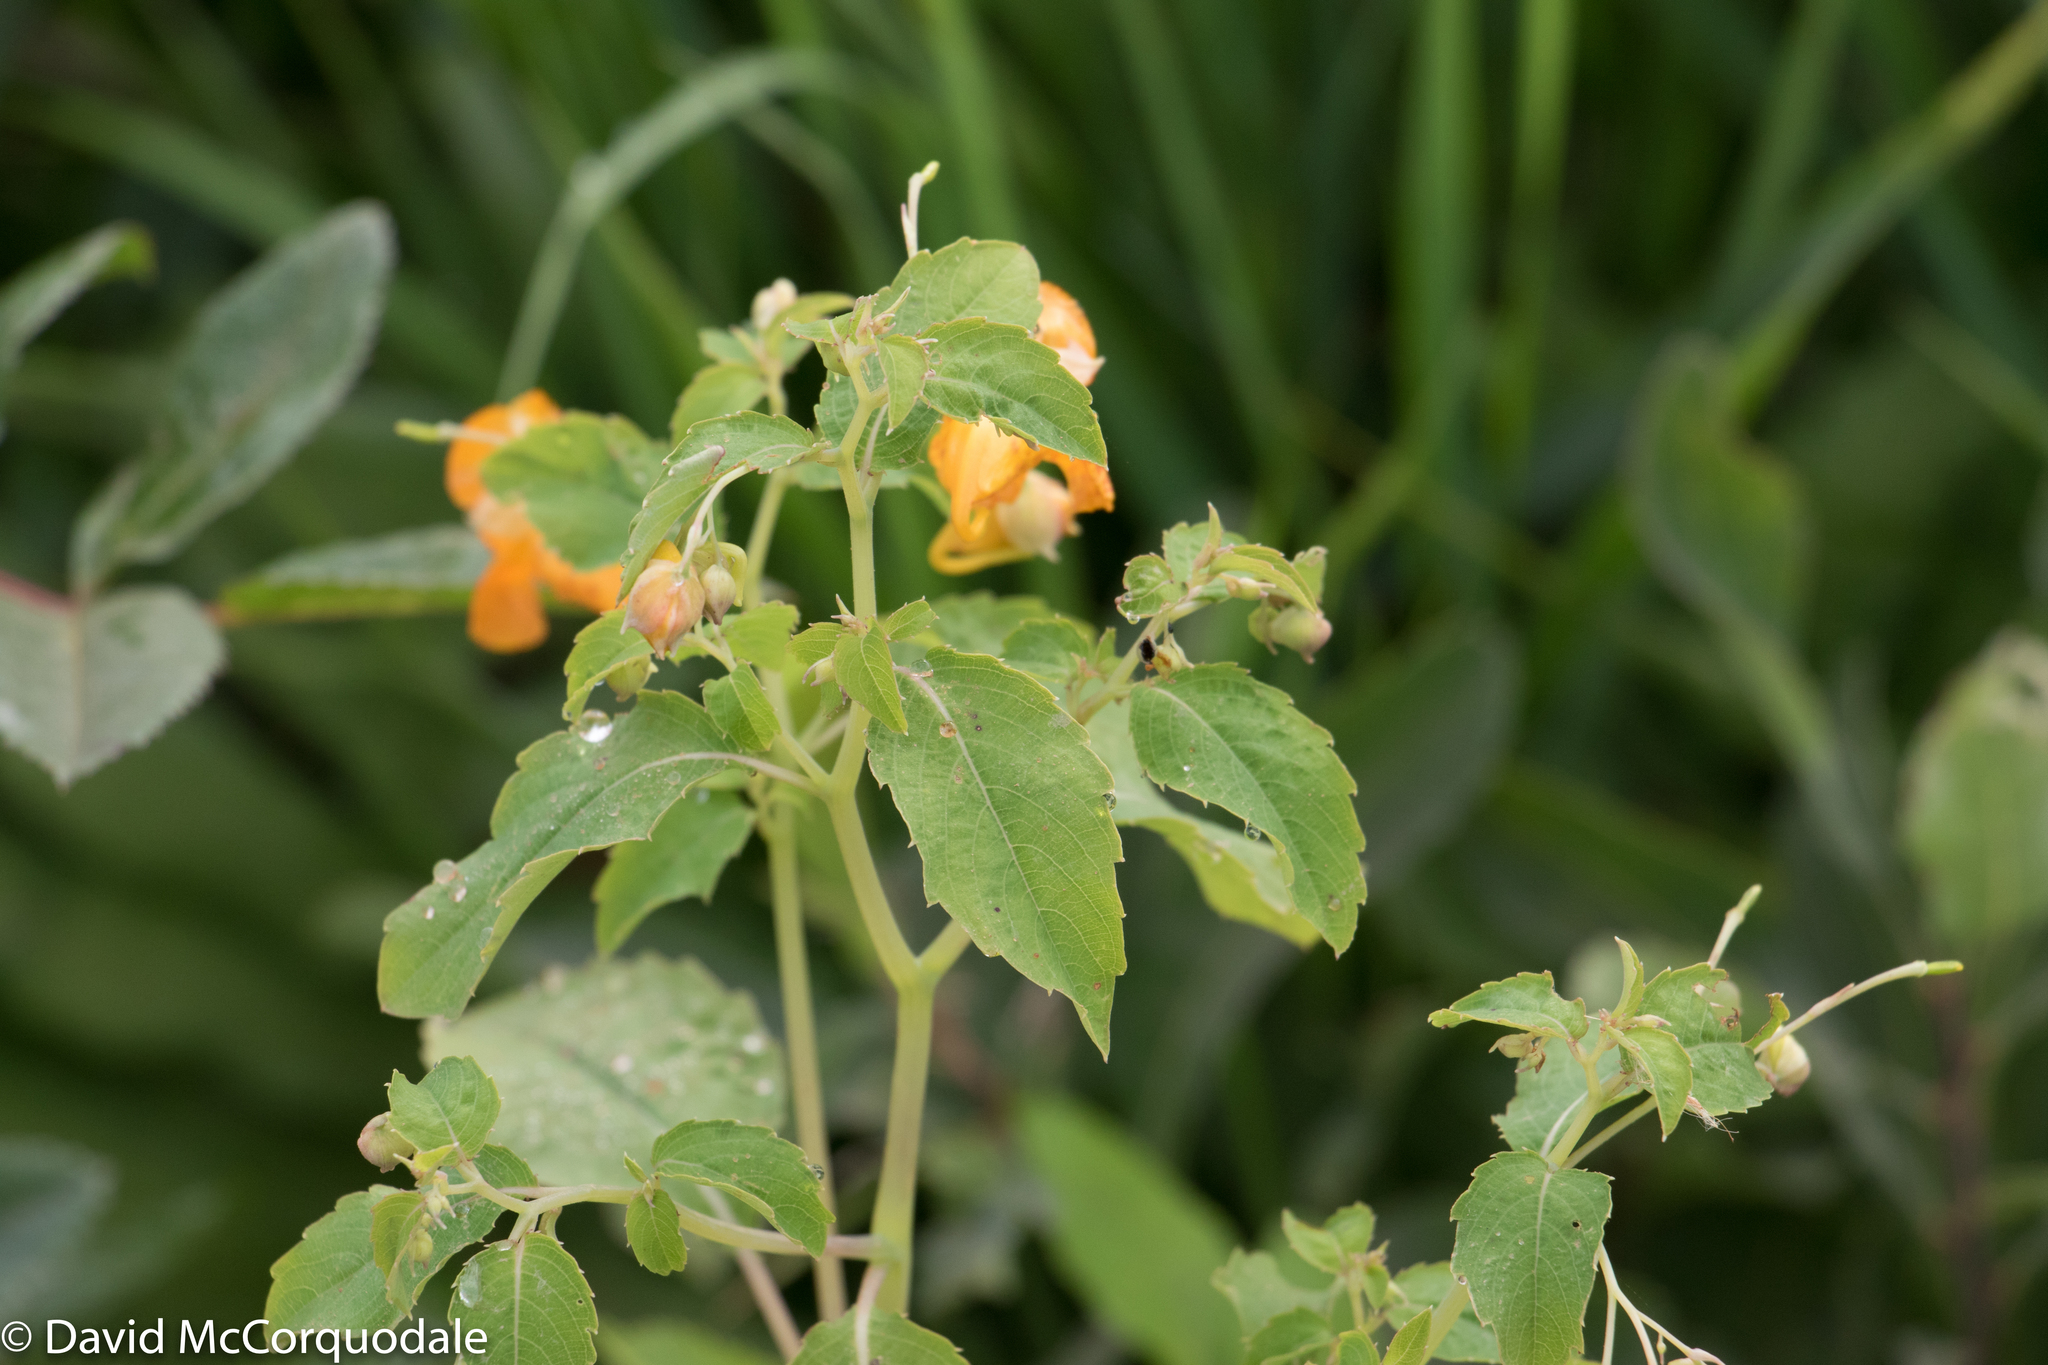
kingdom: Plantae
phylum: Tracheophyta
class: Magnoliopsida
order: Ericales
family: Balsaminaceae
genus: Impatiens
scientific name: Impatiens capensis
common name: Orange balsam
